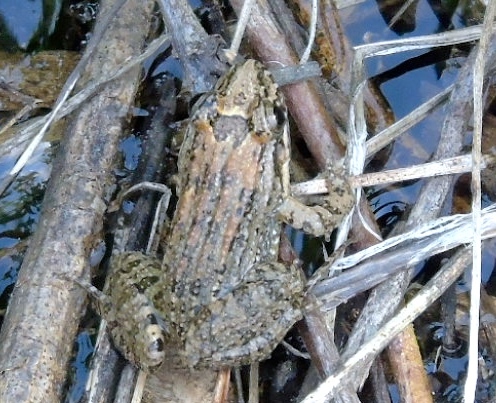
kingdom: Animalia
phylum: Chordata
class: Amphibia
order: Anura
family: Leptodactylidae
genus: Leptodactylus
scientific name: Leptodactylus melanonotus
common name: Fringe-toed foamfrog
